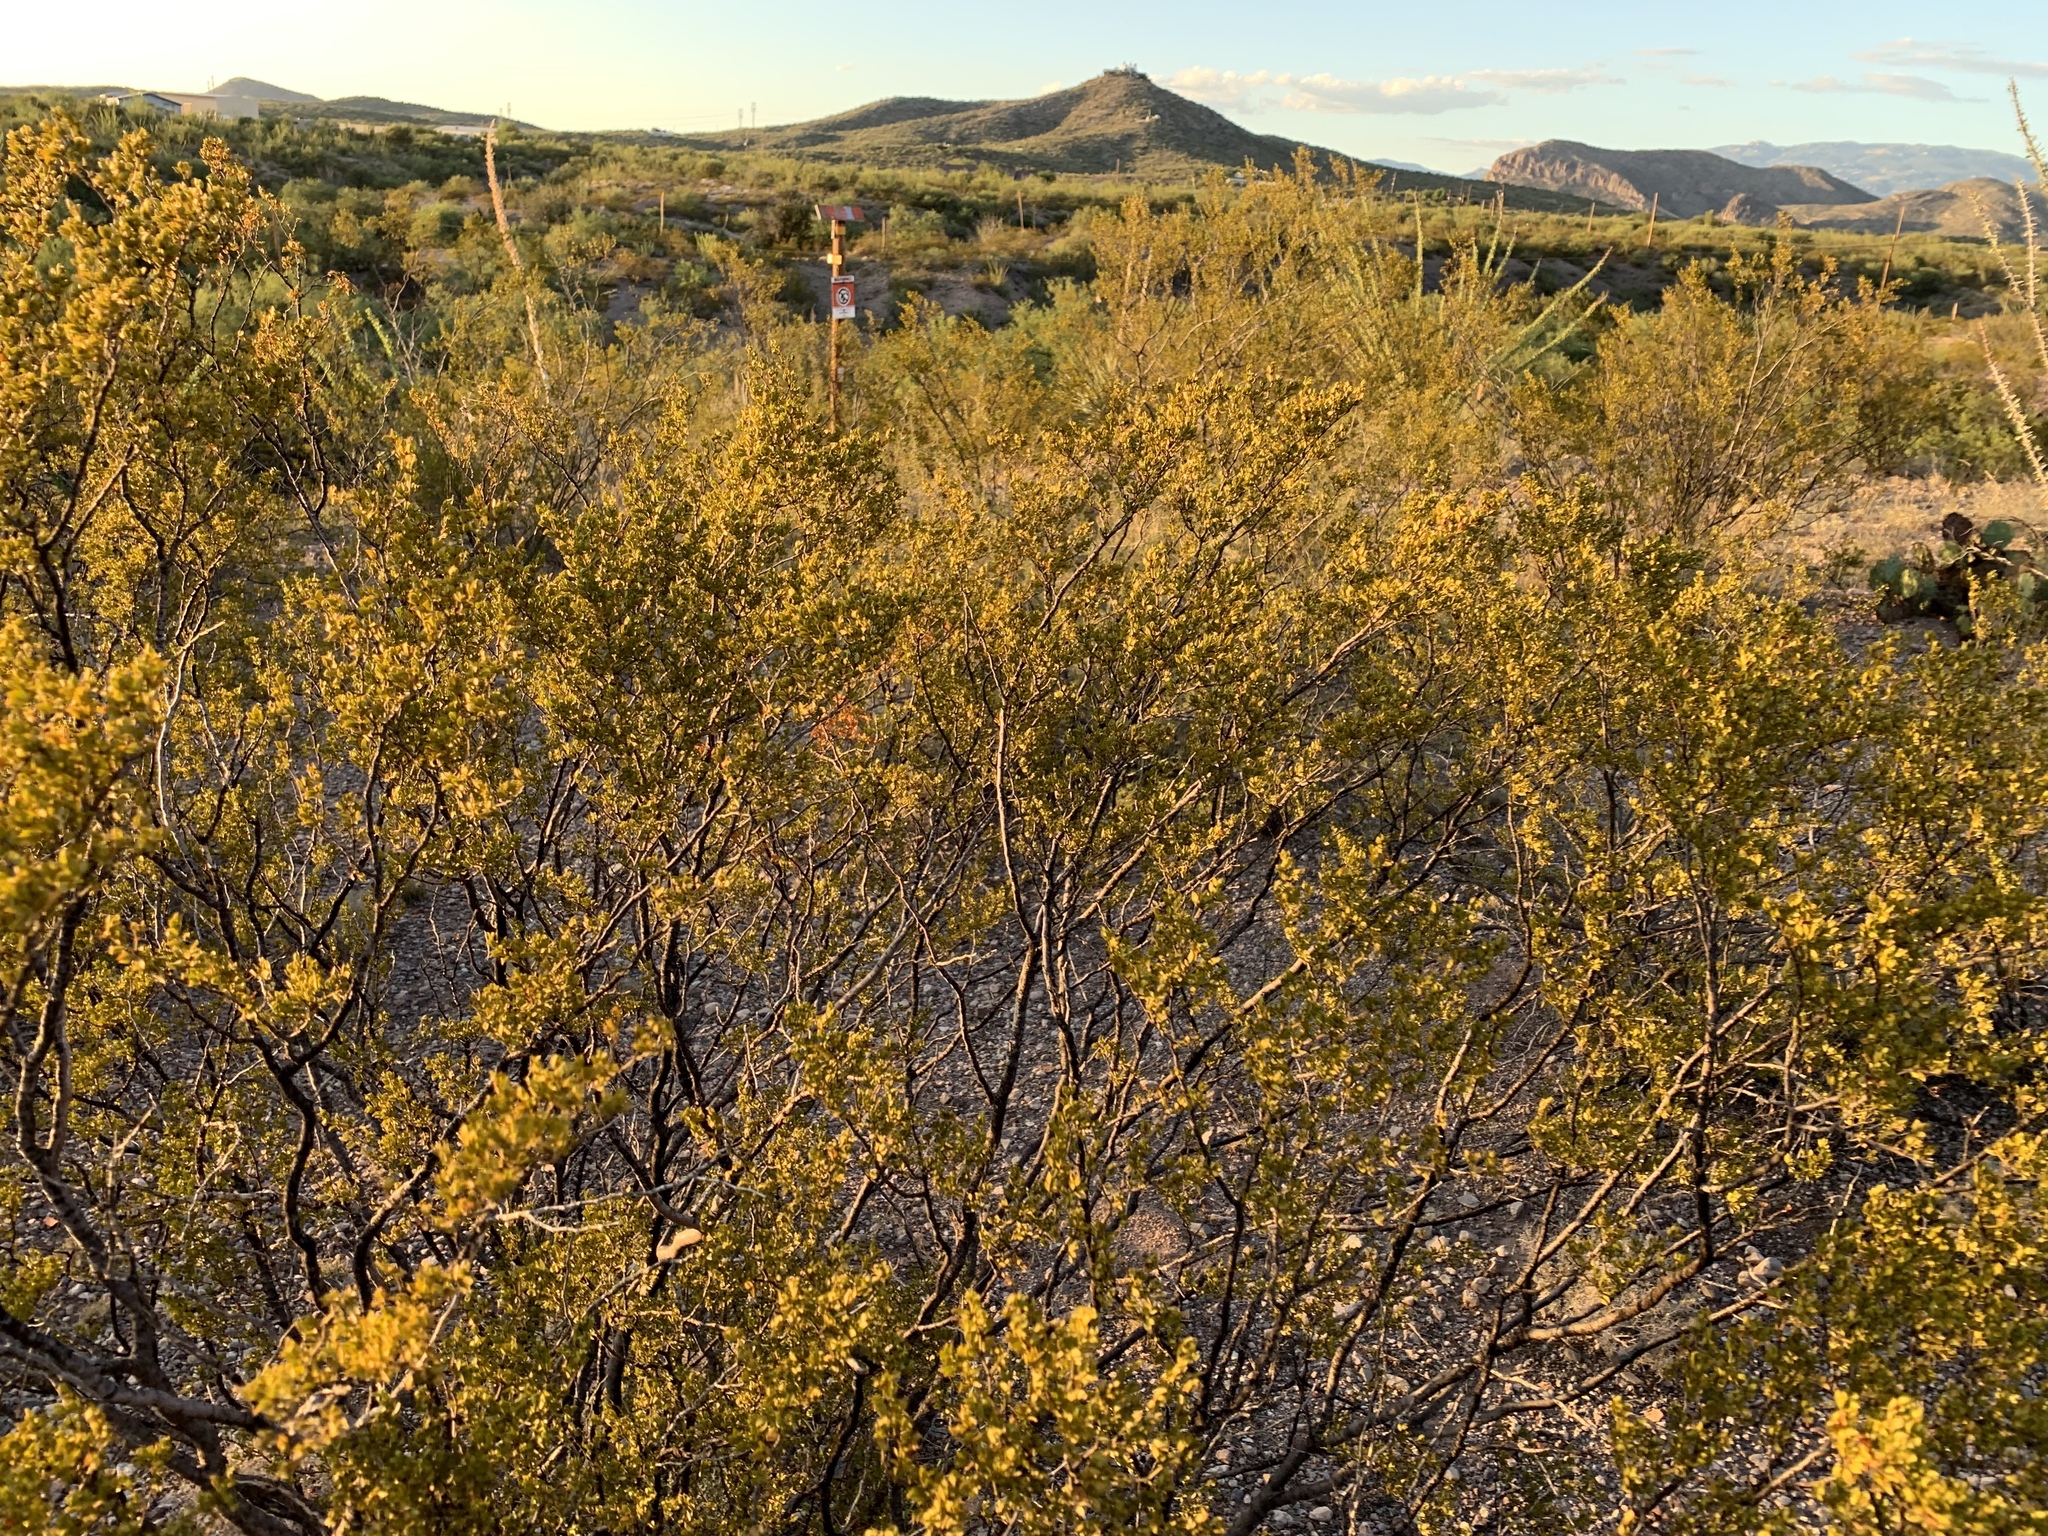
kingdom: Plantae
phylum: Tracheophyta
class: Magnoliopsida
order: Zygophyllales
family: Zygophyllaceae
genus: Larrea
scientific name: Larrea tridentata
